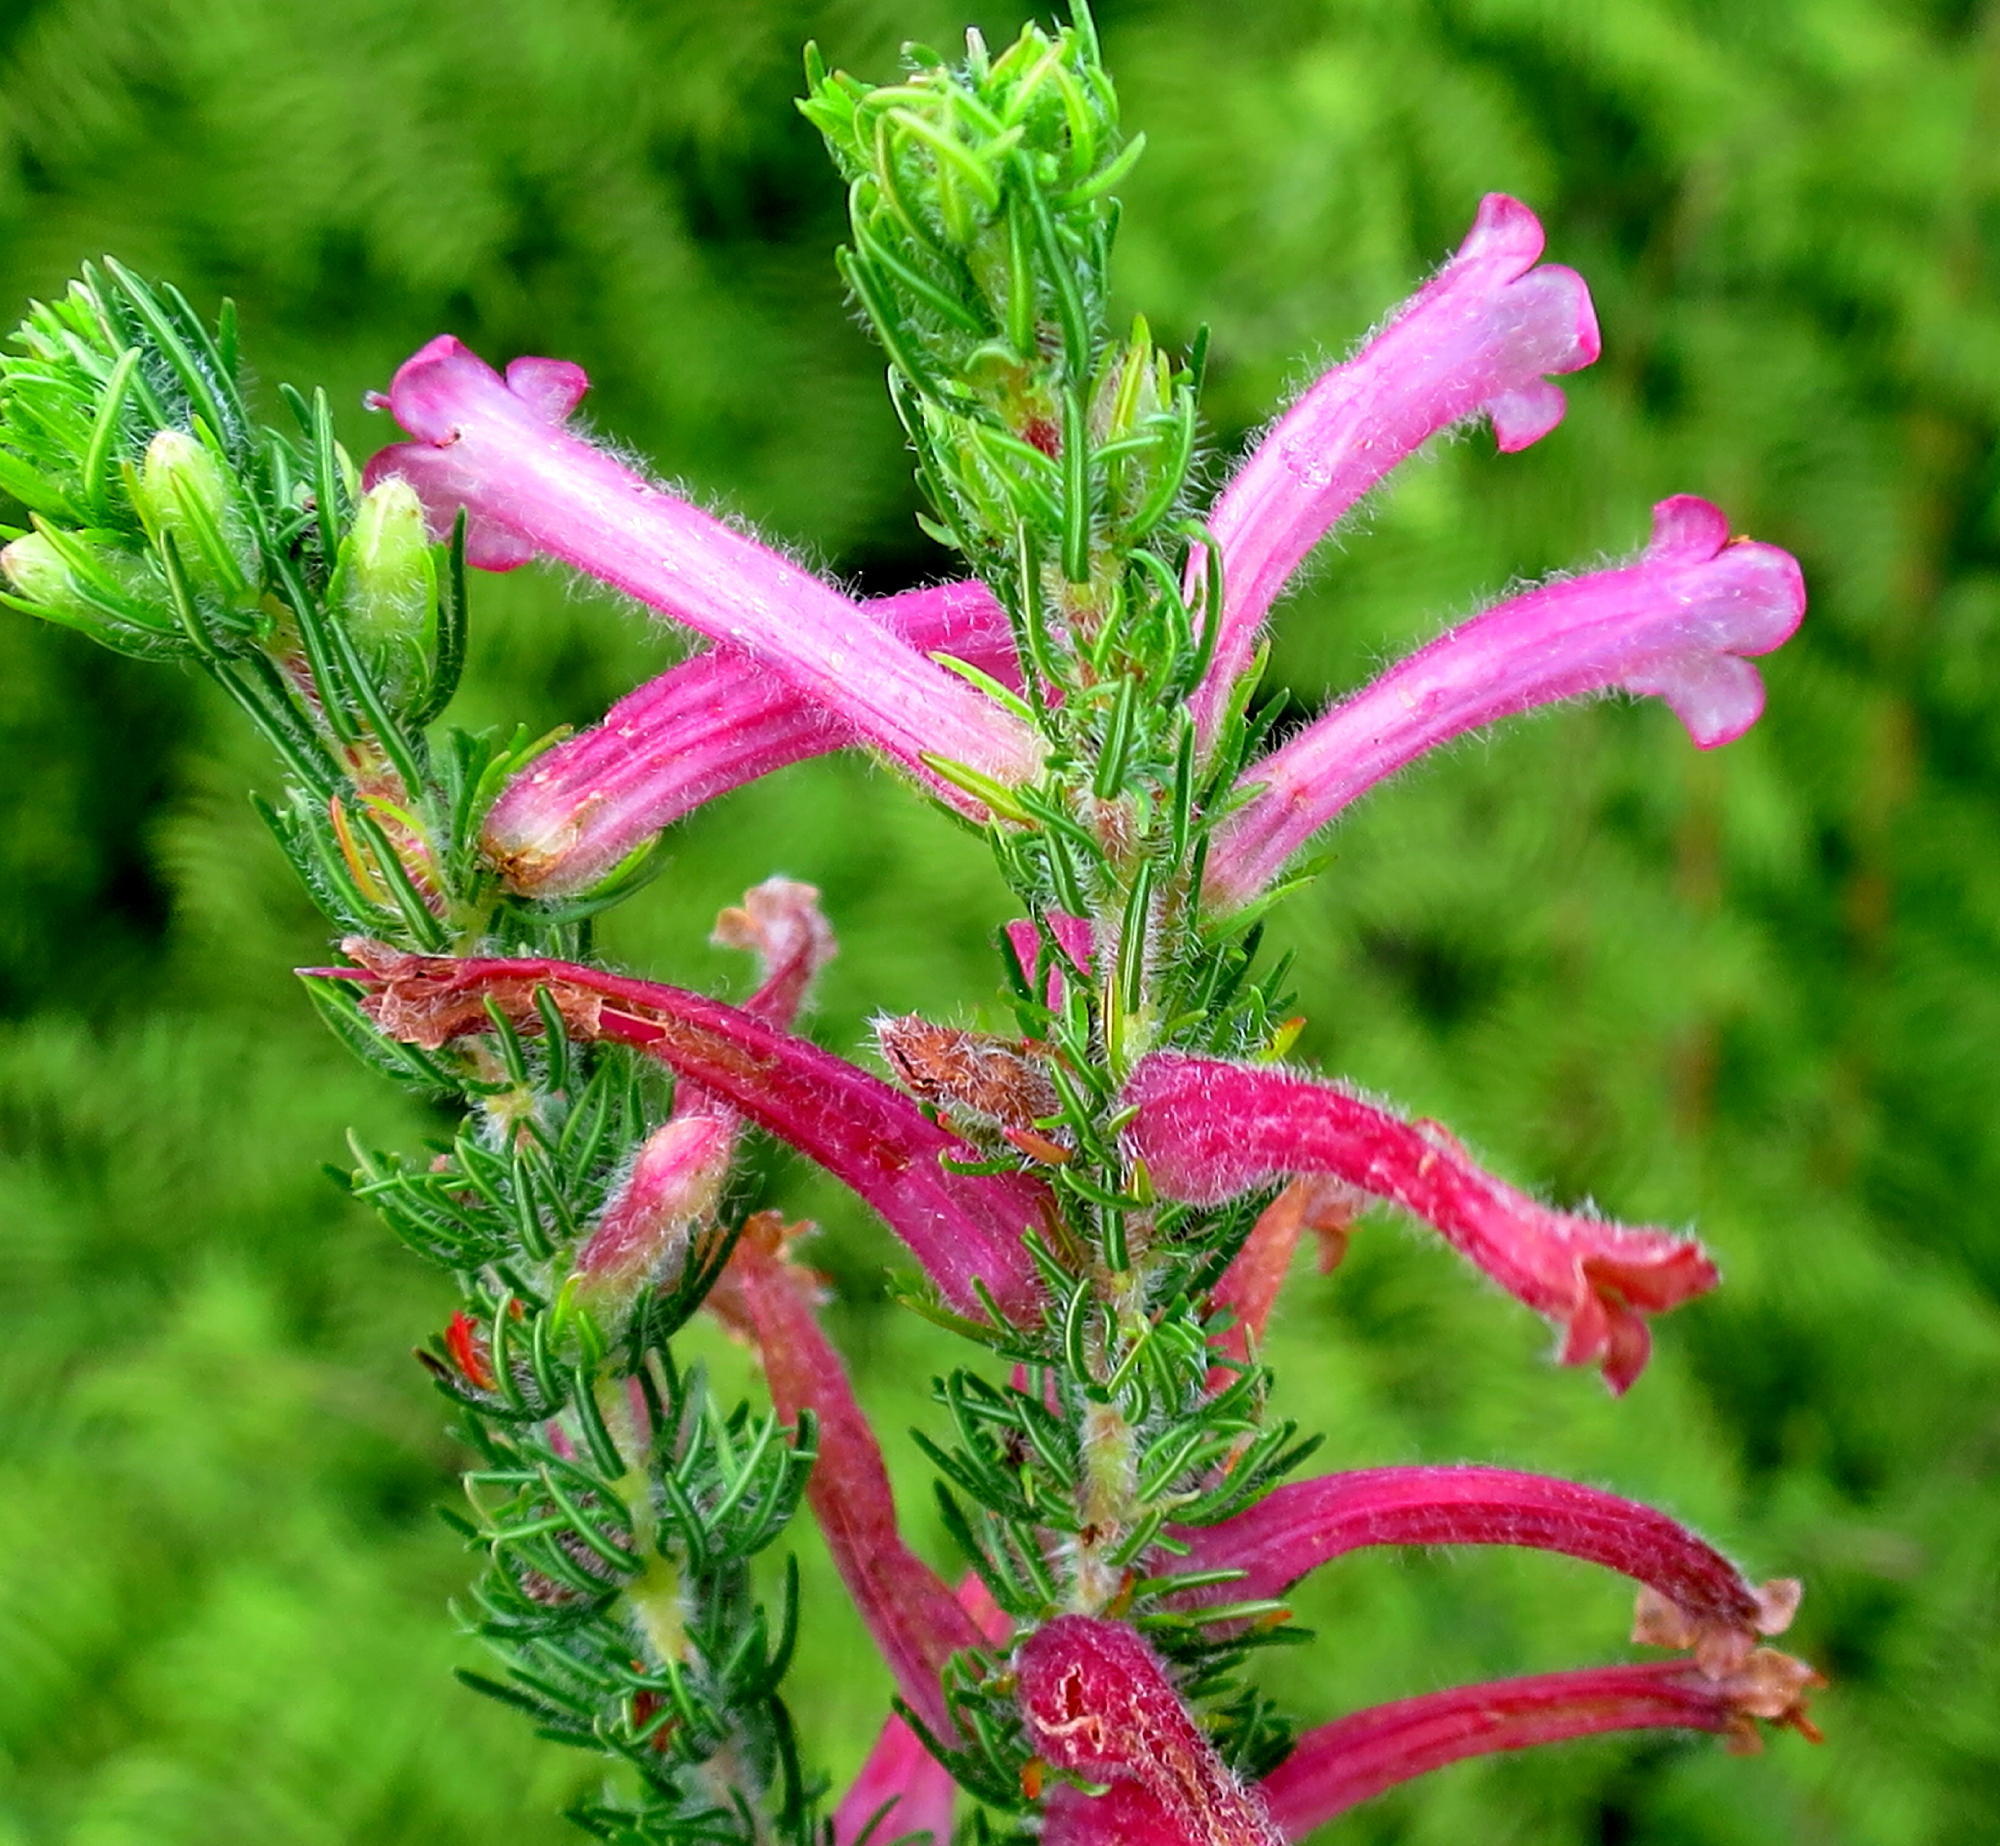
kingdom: Plantae
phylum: Tracheophyta
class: Magnoliopsida
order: Ericales
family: Ericaceae
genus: Erica
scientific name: Erica curviflora
